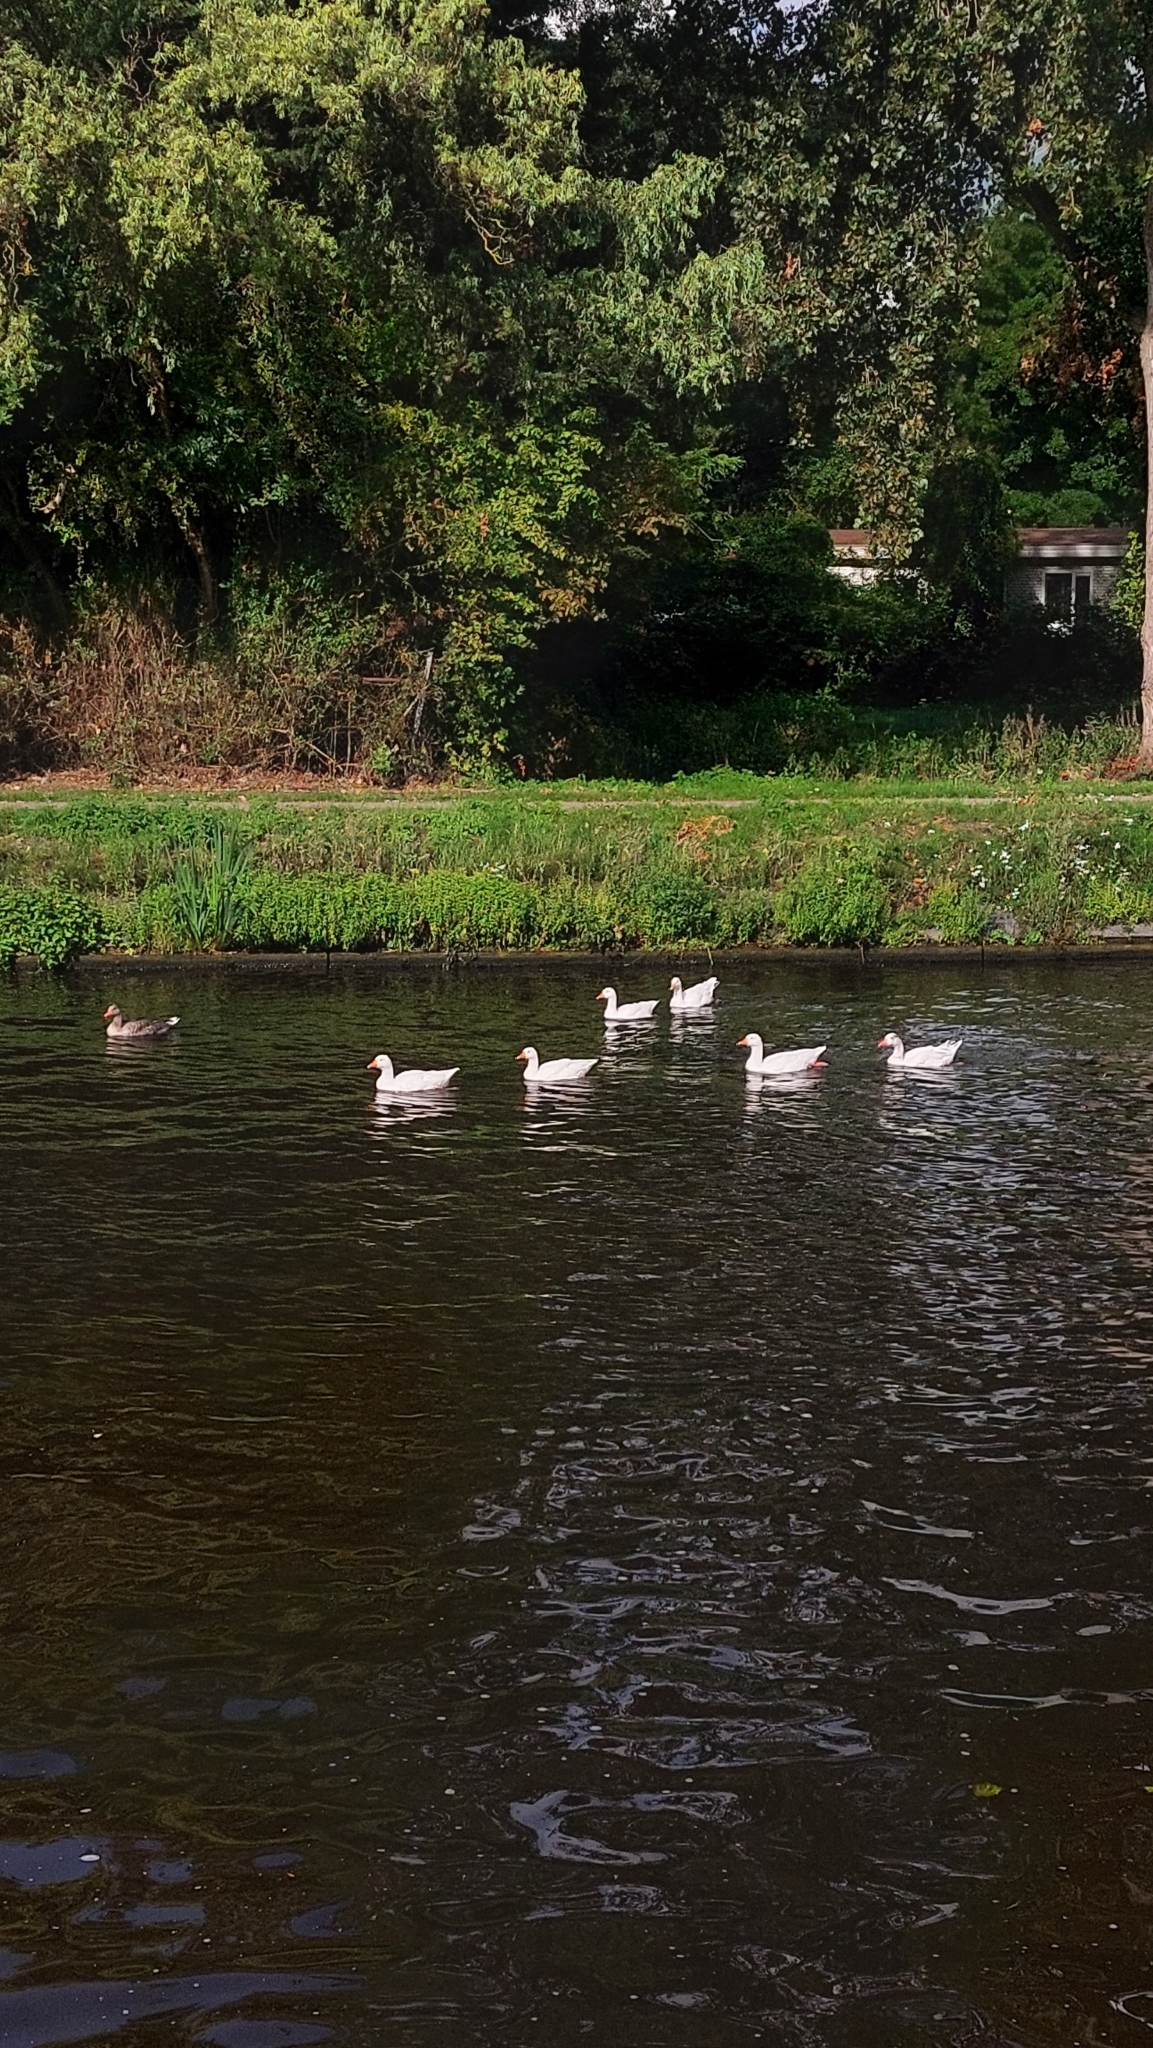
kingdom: Animalia
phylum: Chordata
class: Aves
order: Anseriformes
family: Anatidae
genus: Anser
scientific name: Anser anser
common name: Greylag goose
